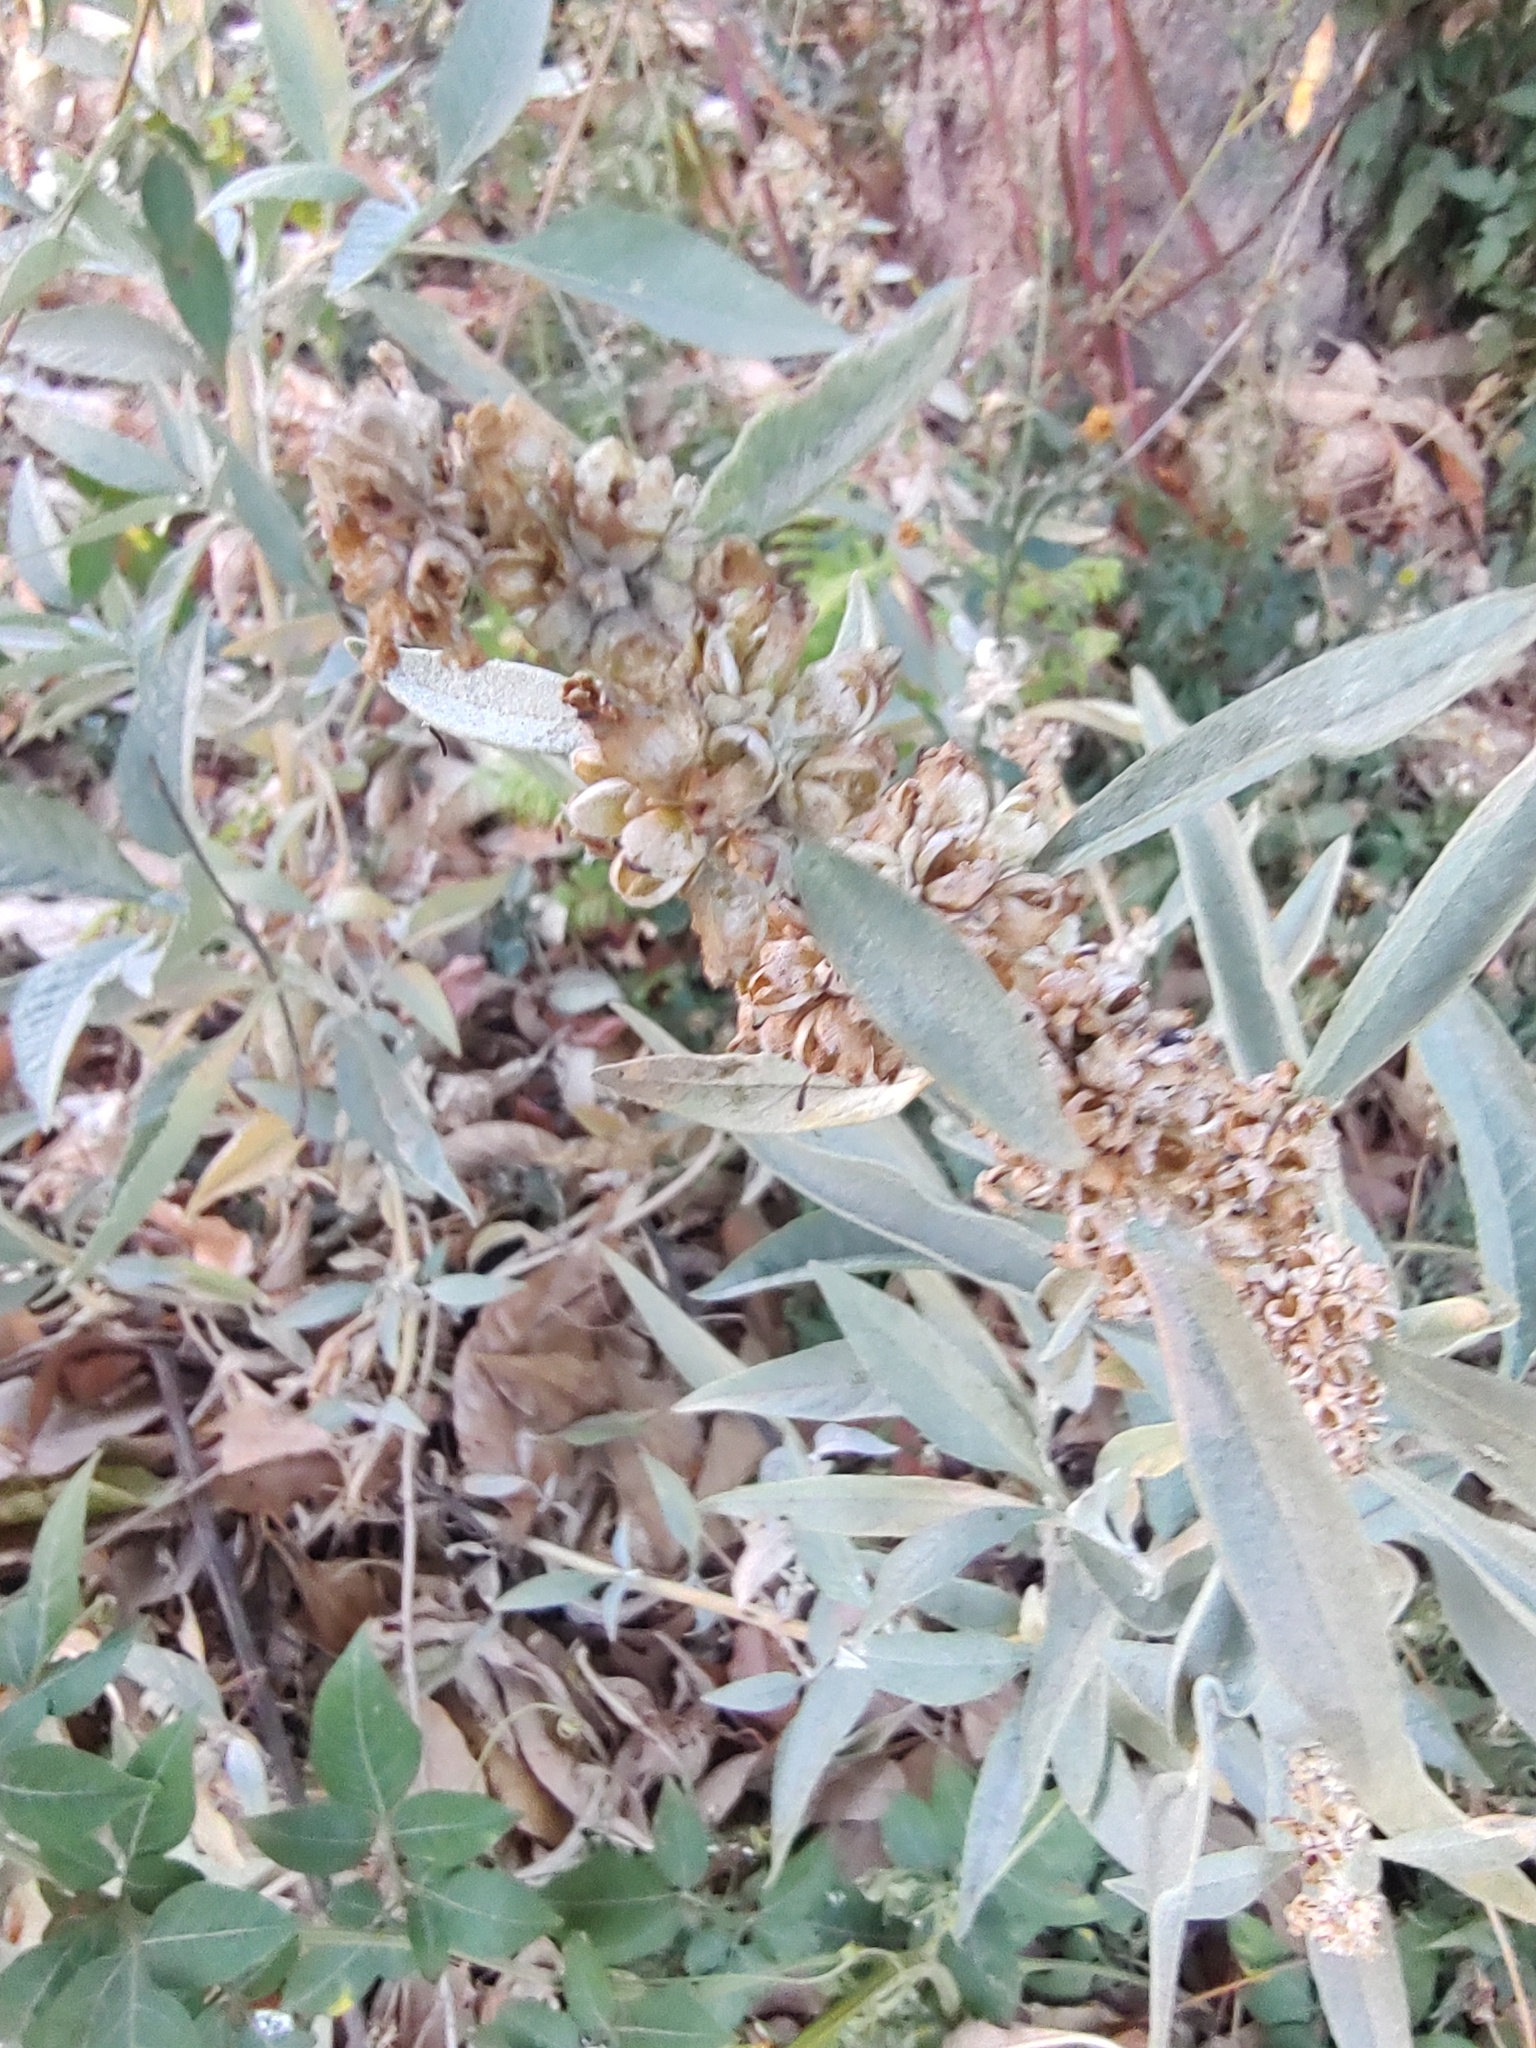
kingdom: Plantae
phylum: Tracheophyta
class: Magnoliopsida
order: Lamiales
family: Scrophulariaceae
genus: Buddleja
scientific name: Buddleja sessiliflora
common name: Rio grande butterfly-bush
